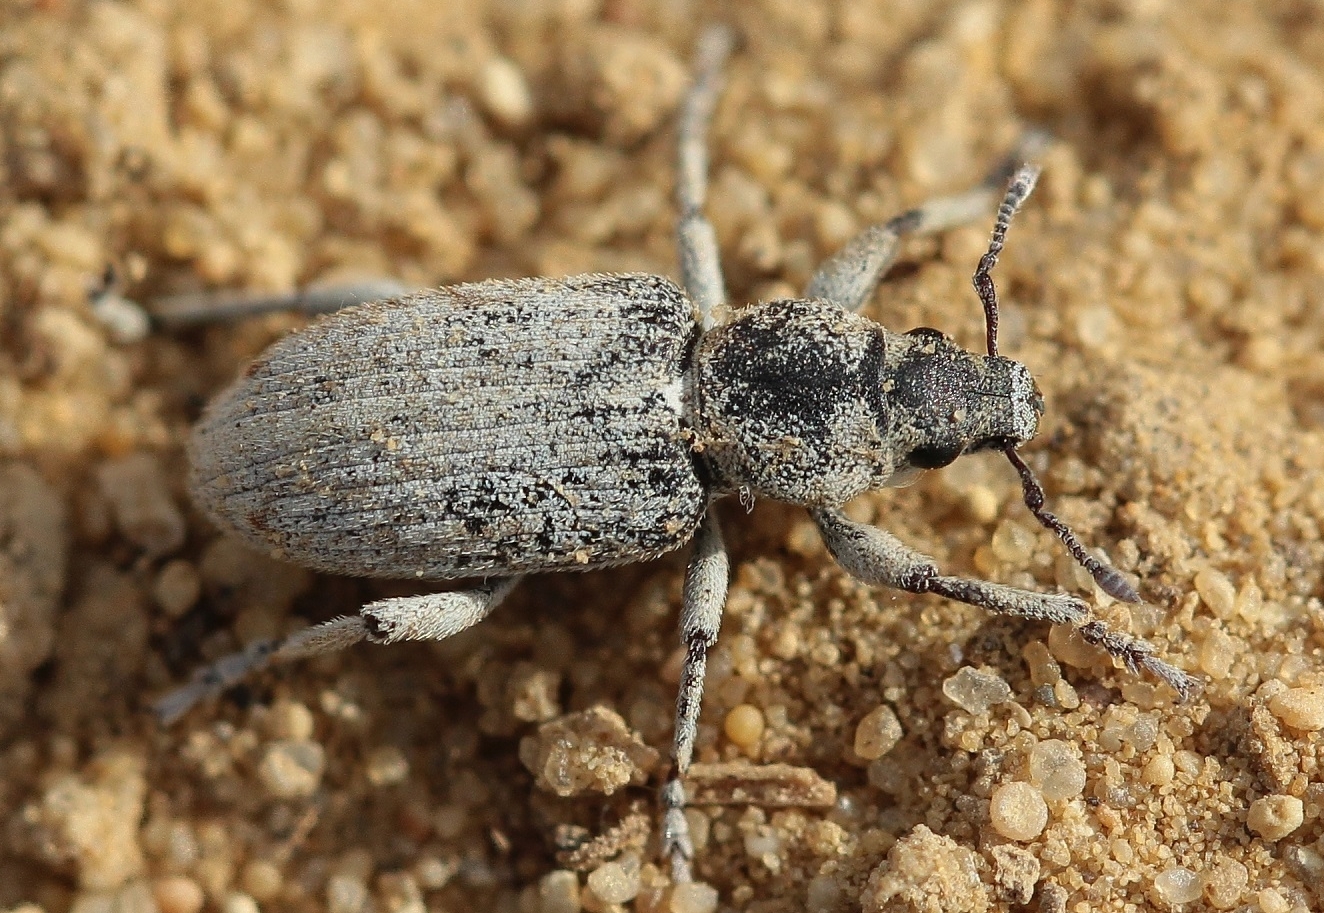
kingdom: Animalia
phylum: Arthropoda
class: Insecta
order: Coleoptera
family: Curculionidae
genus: Phacephorus
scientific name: Phacephorus argyrostomus
